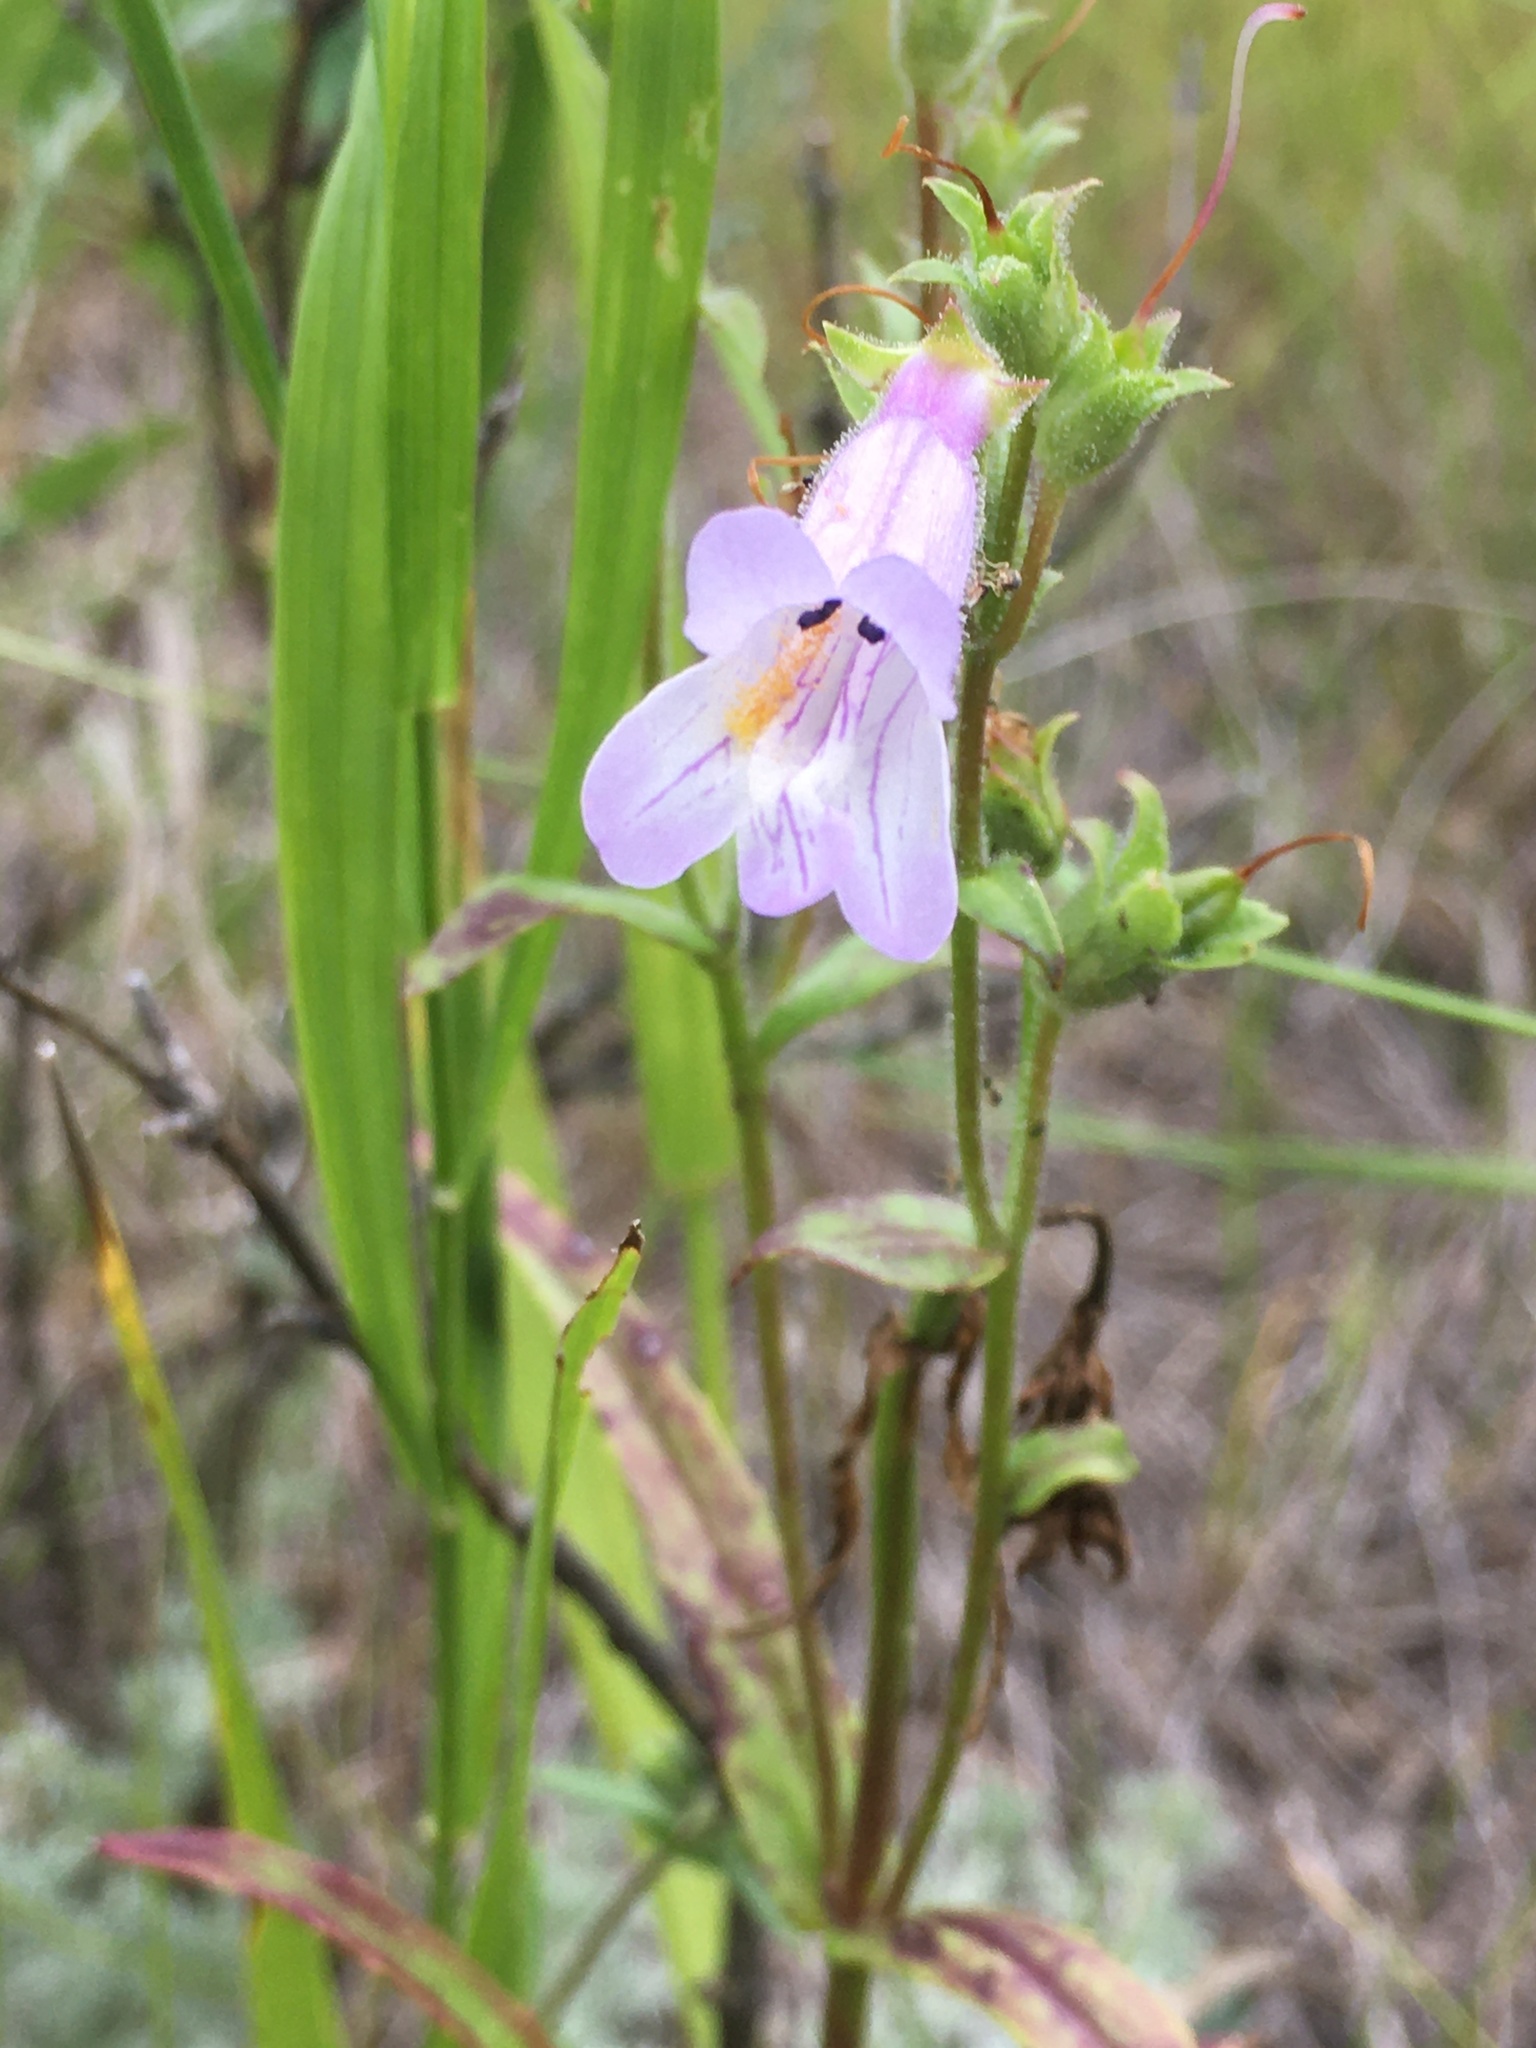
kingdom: Plantae
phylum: Tracheophyta
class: Magnoliopsida
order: Lamiales
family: Plantaginaceae
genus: Penstemon
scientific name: Penstemon gracilis
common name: Slender beardtongue
